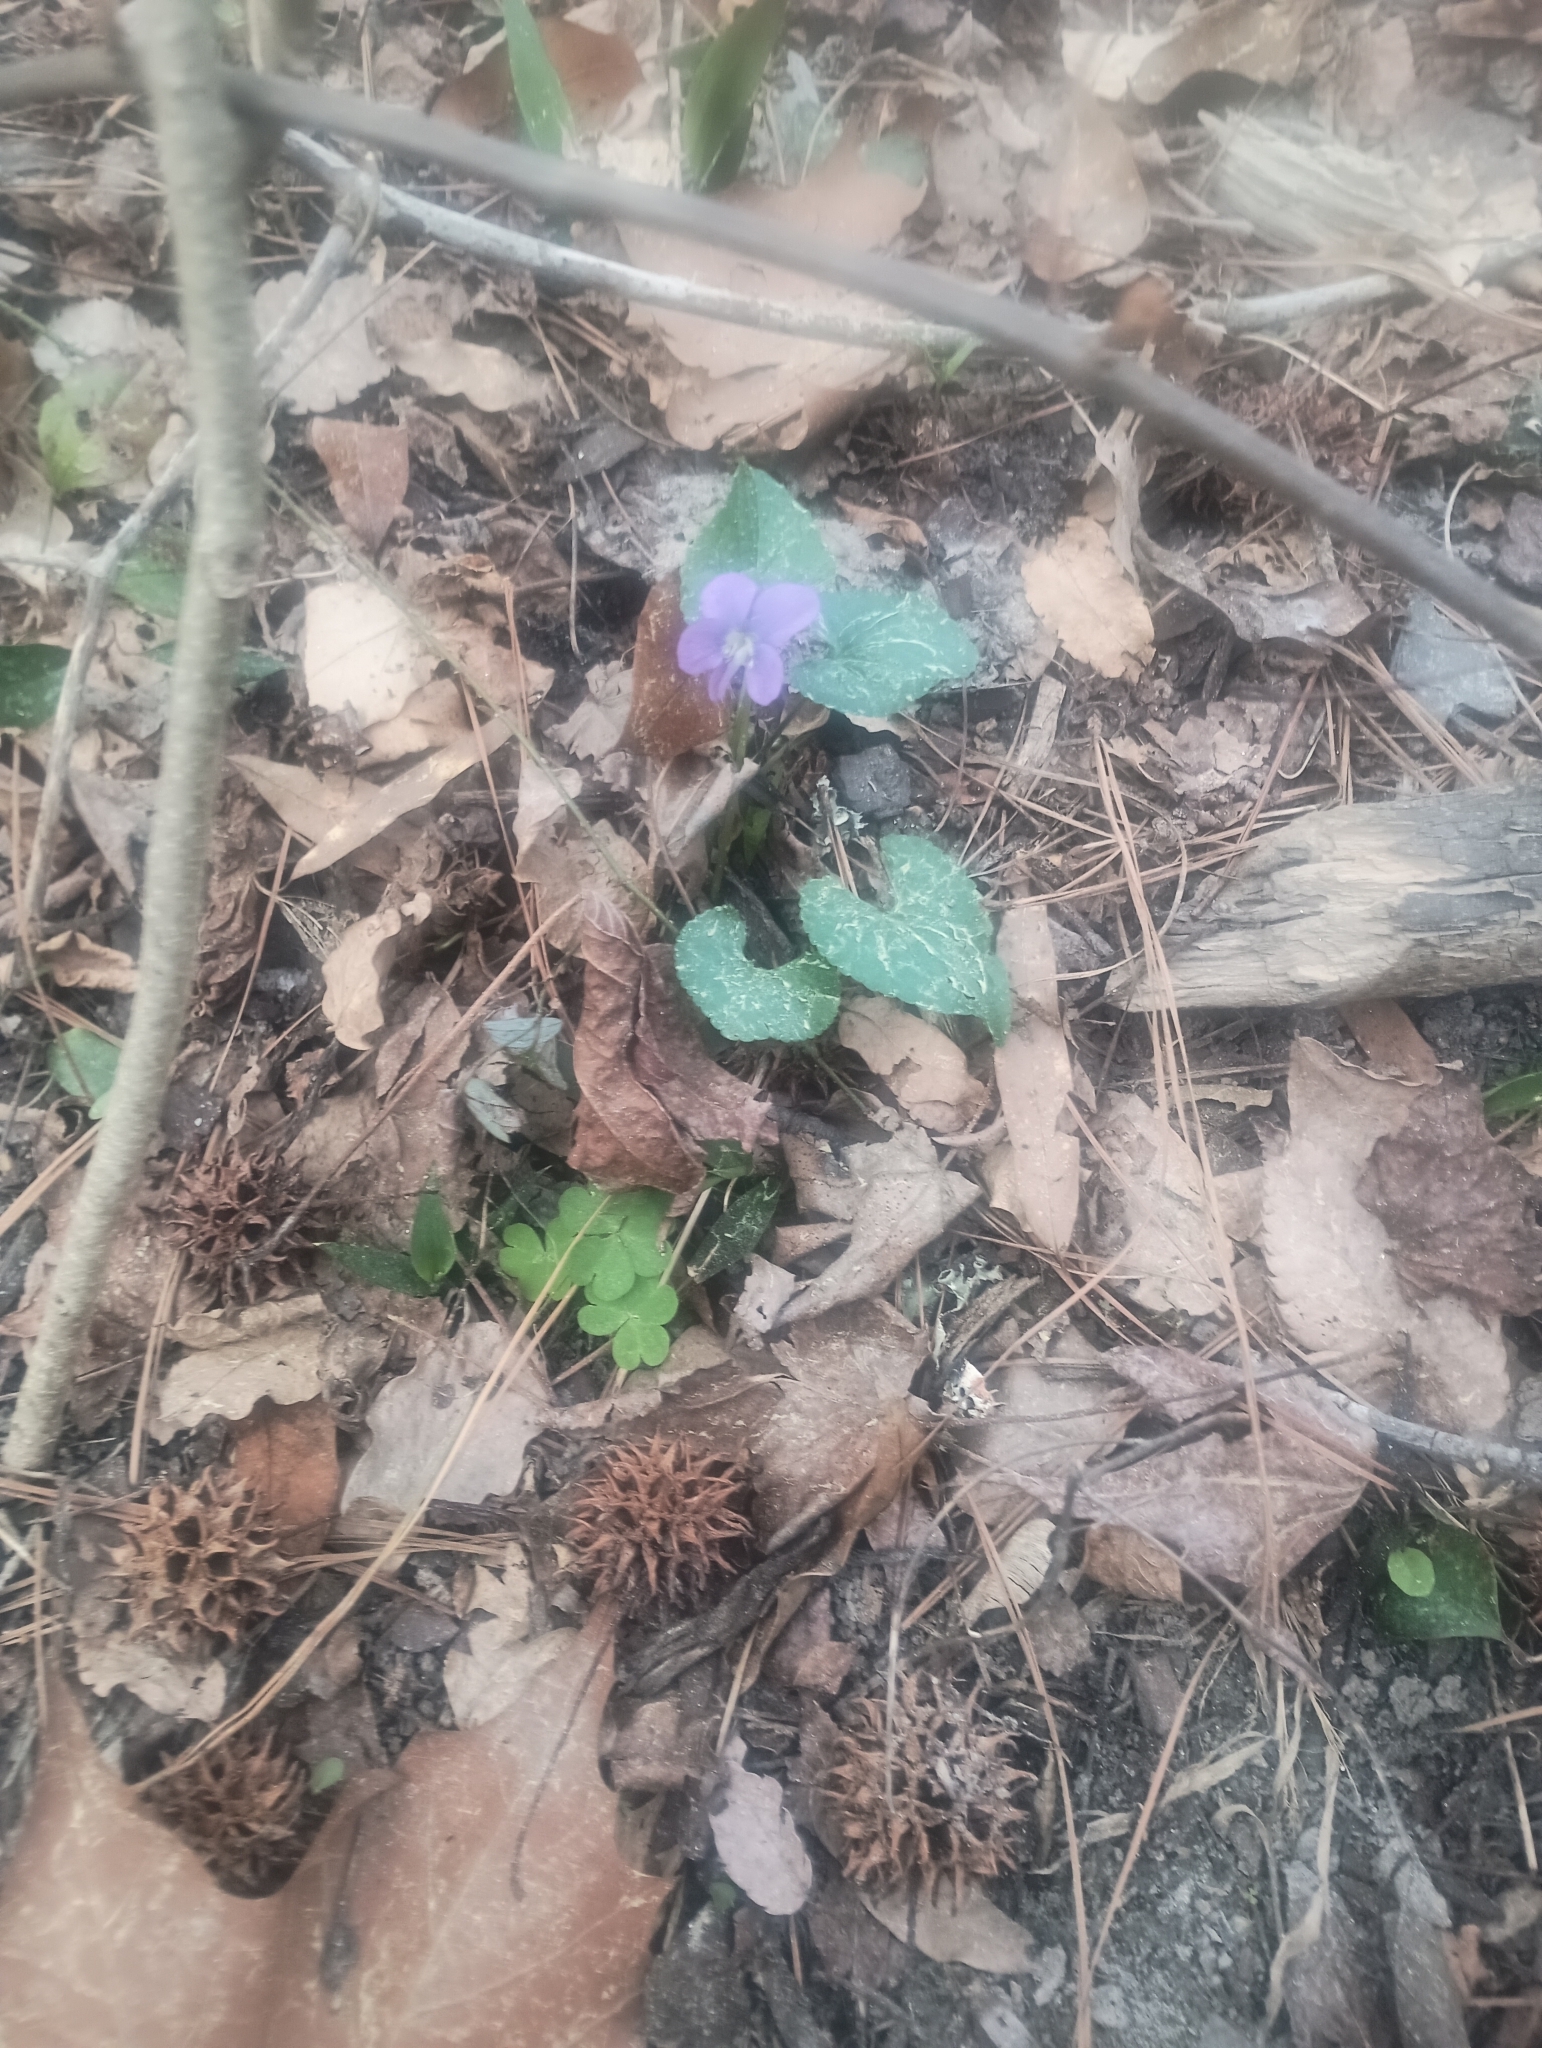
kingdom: Plantae
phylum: Tracheophyta
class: Magnoliopsida
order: Malpighiales
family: Violaceae
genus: Viola
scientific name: Viola sororia
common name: Dooryard violet
